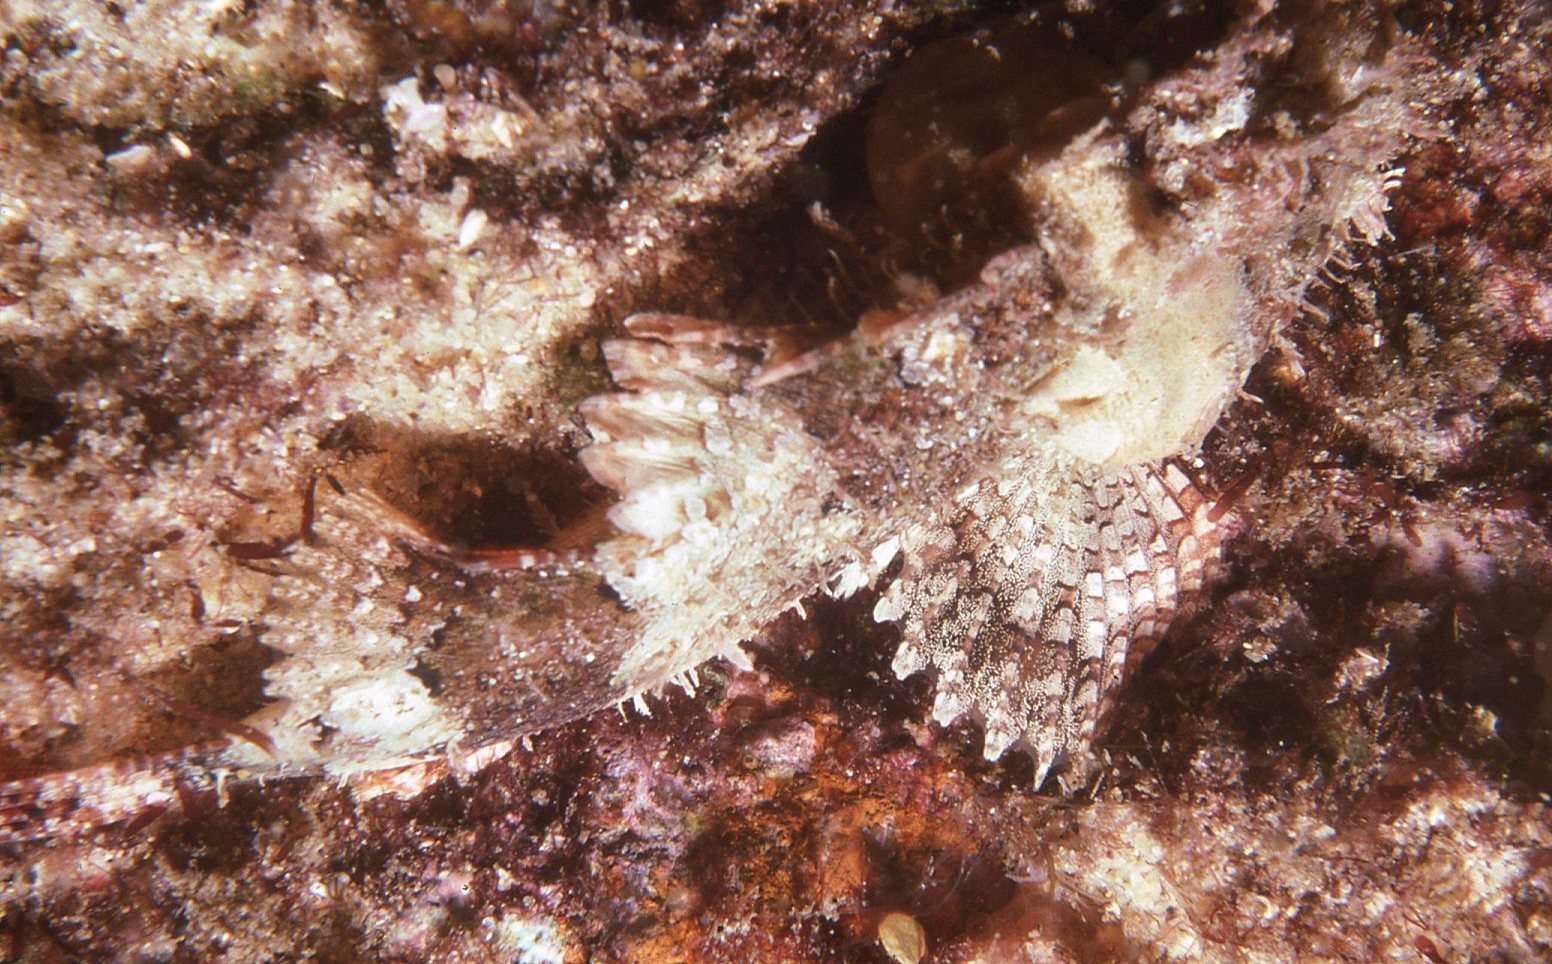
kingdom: Animalia
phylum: Chordata
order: Scorpaeniformes
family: Scorpaenidae
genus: Scorpaena
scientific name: Scorpaena papillosa
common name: Chained scorpionfish
